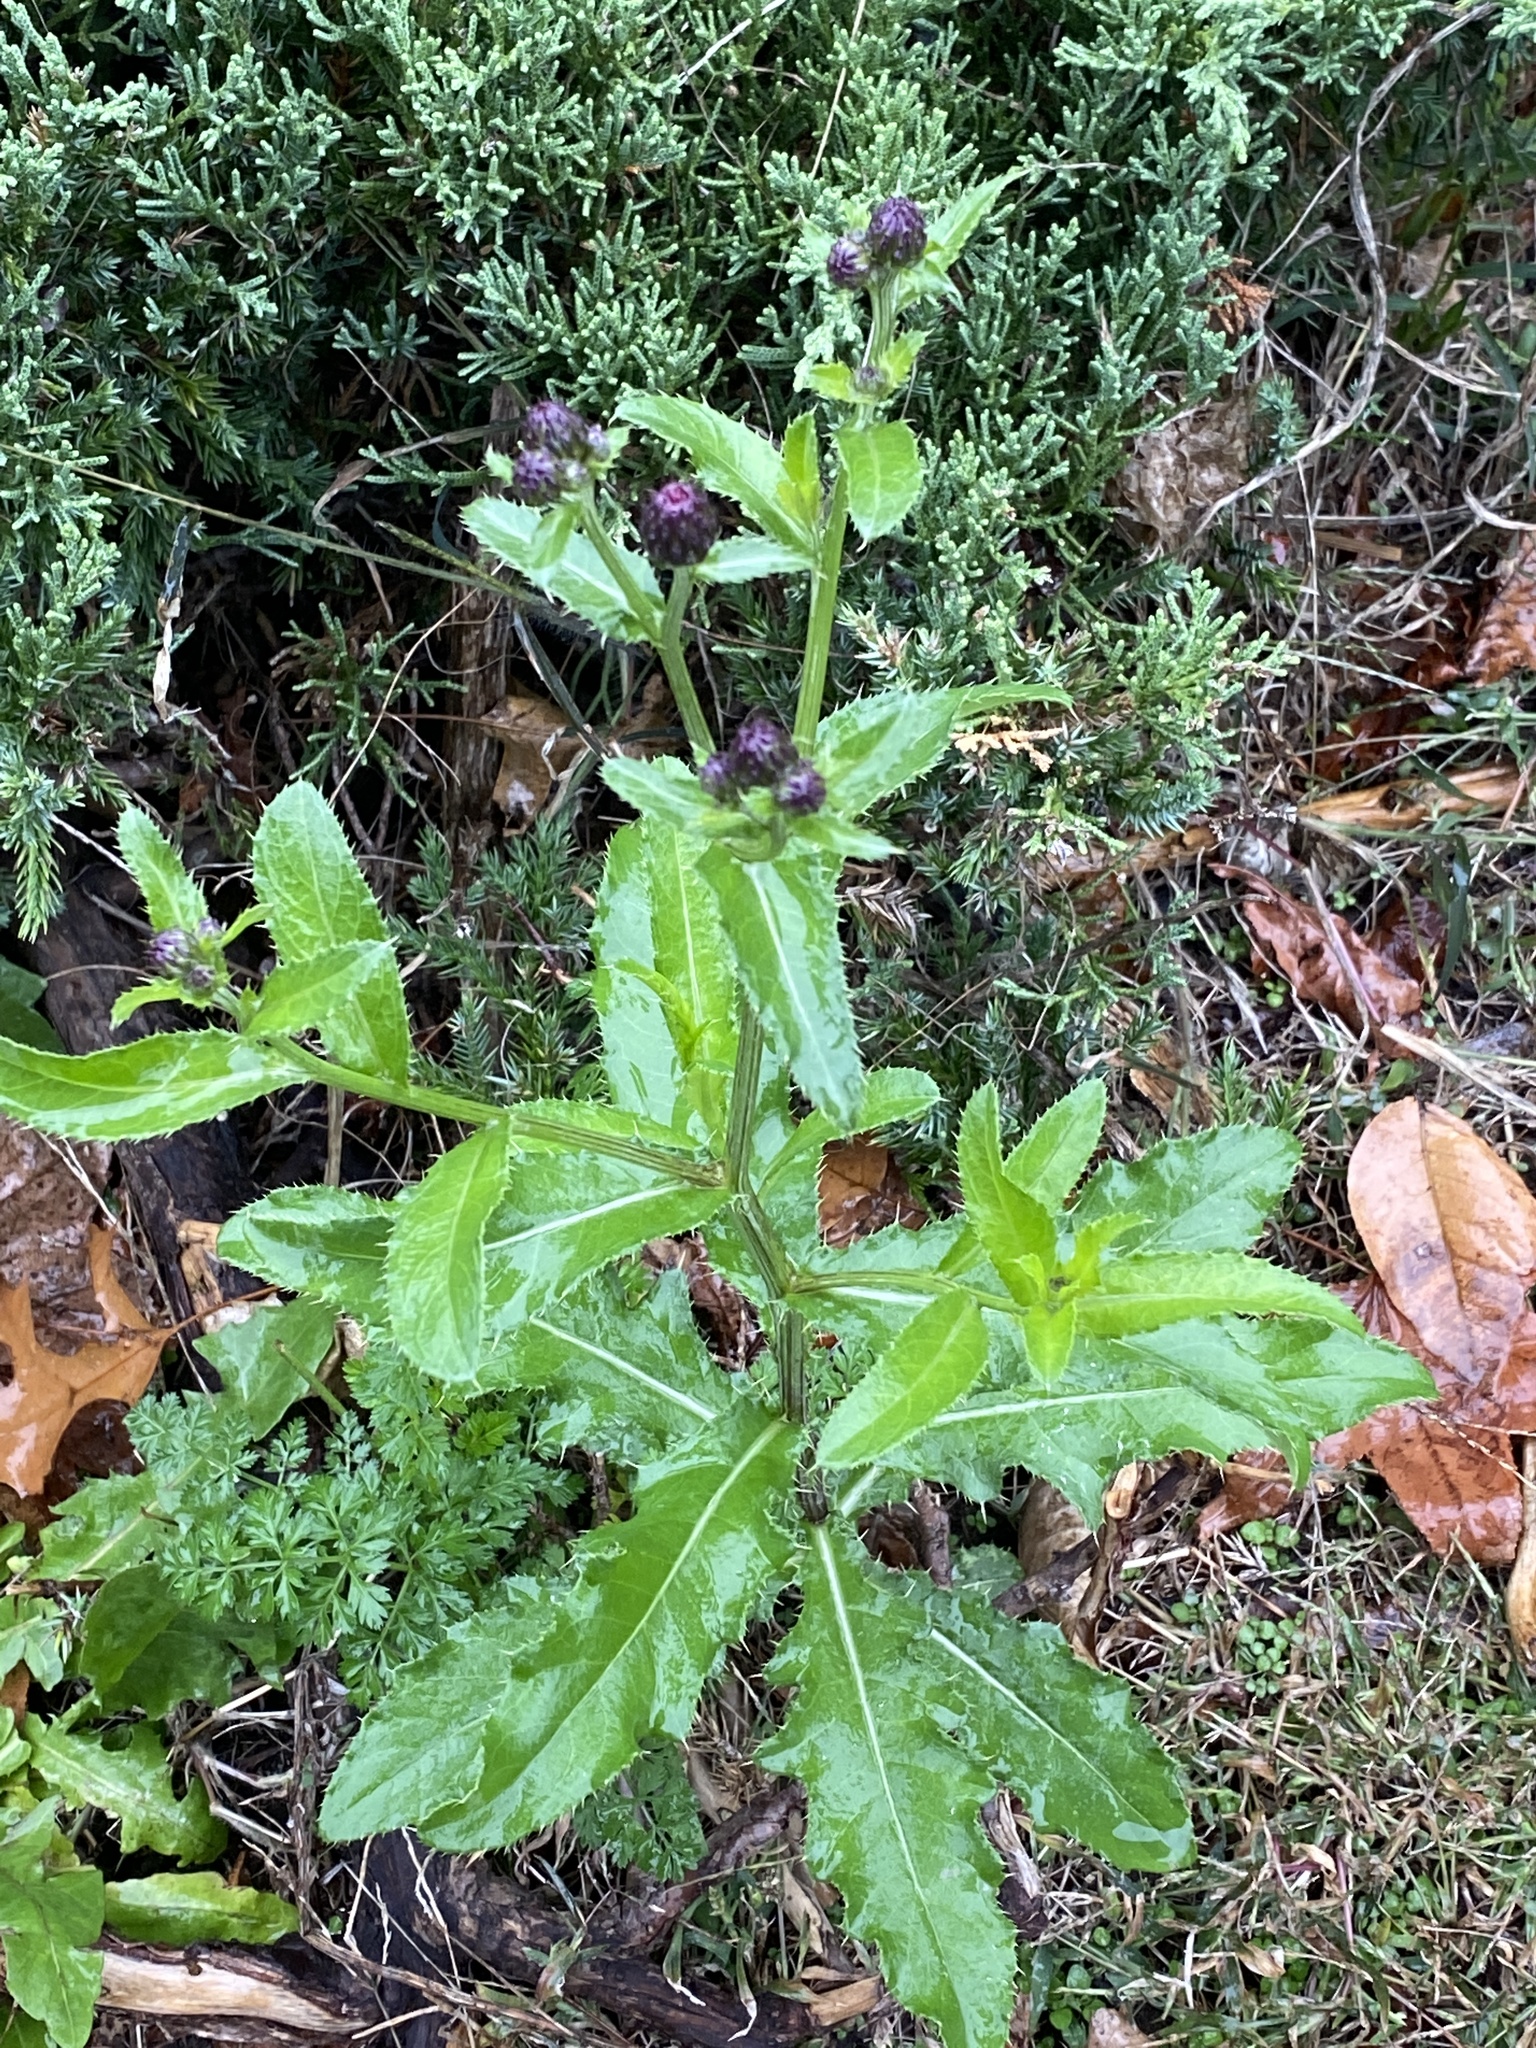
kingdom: Plantae
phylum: Tracheophyta
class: Magnoliopsida
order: Asterales
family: Asteraceae
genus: Cirsium
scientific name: Cirsium arvense
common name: Creeping thistle
